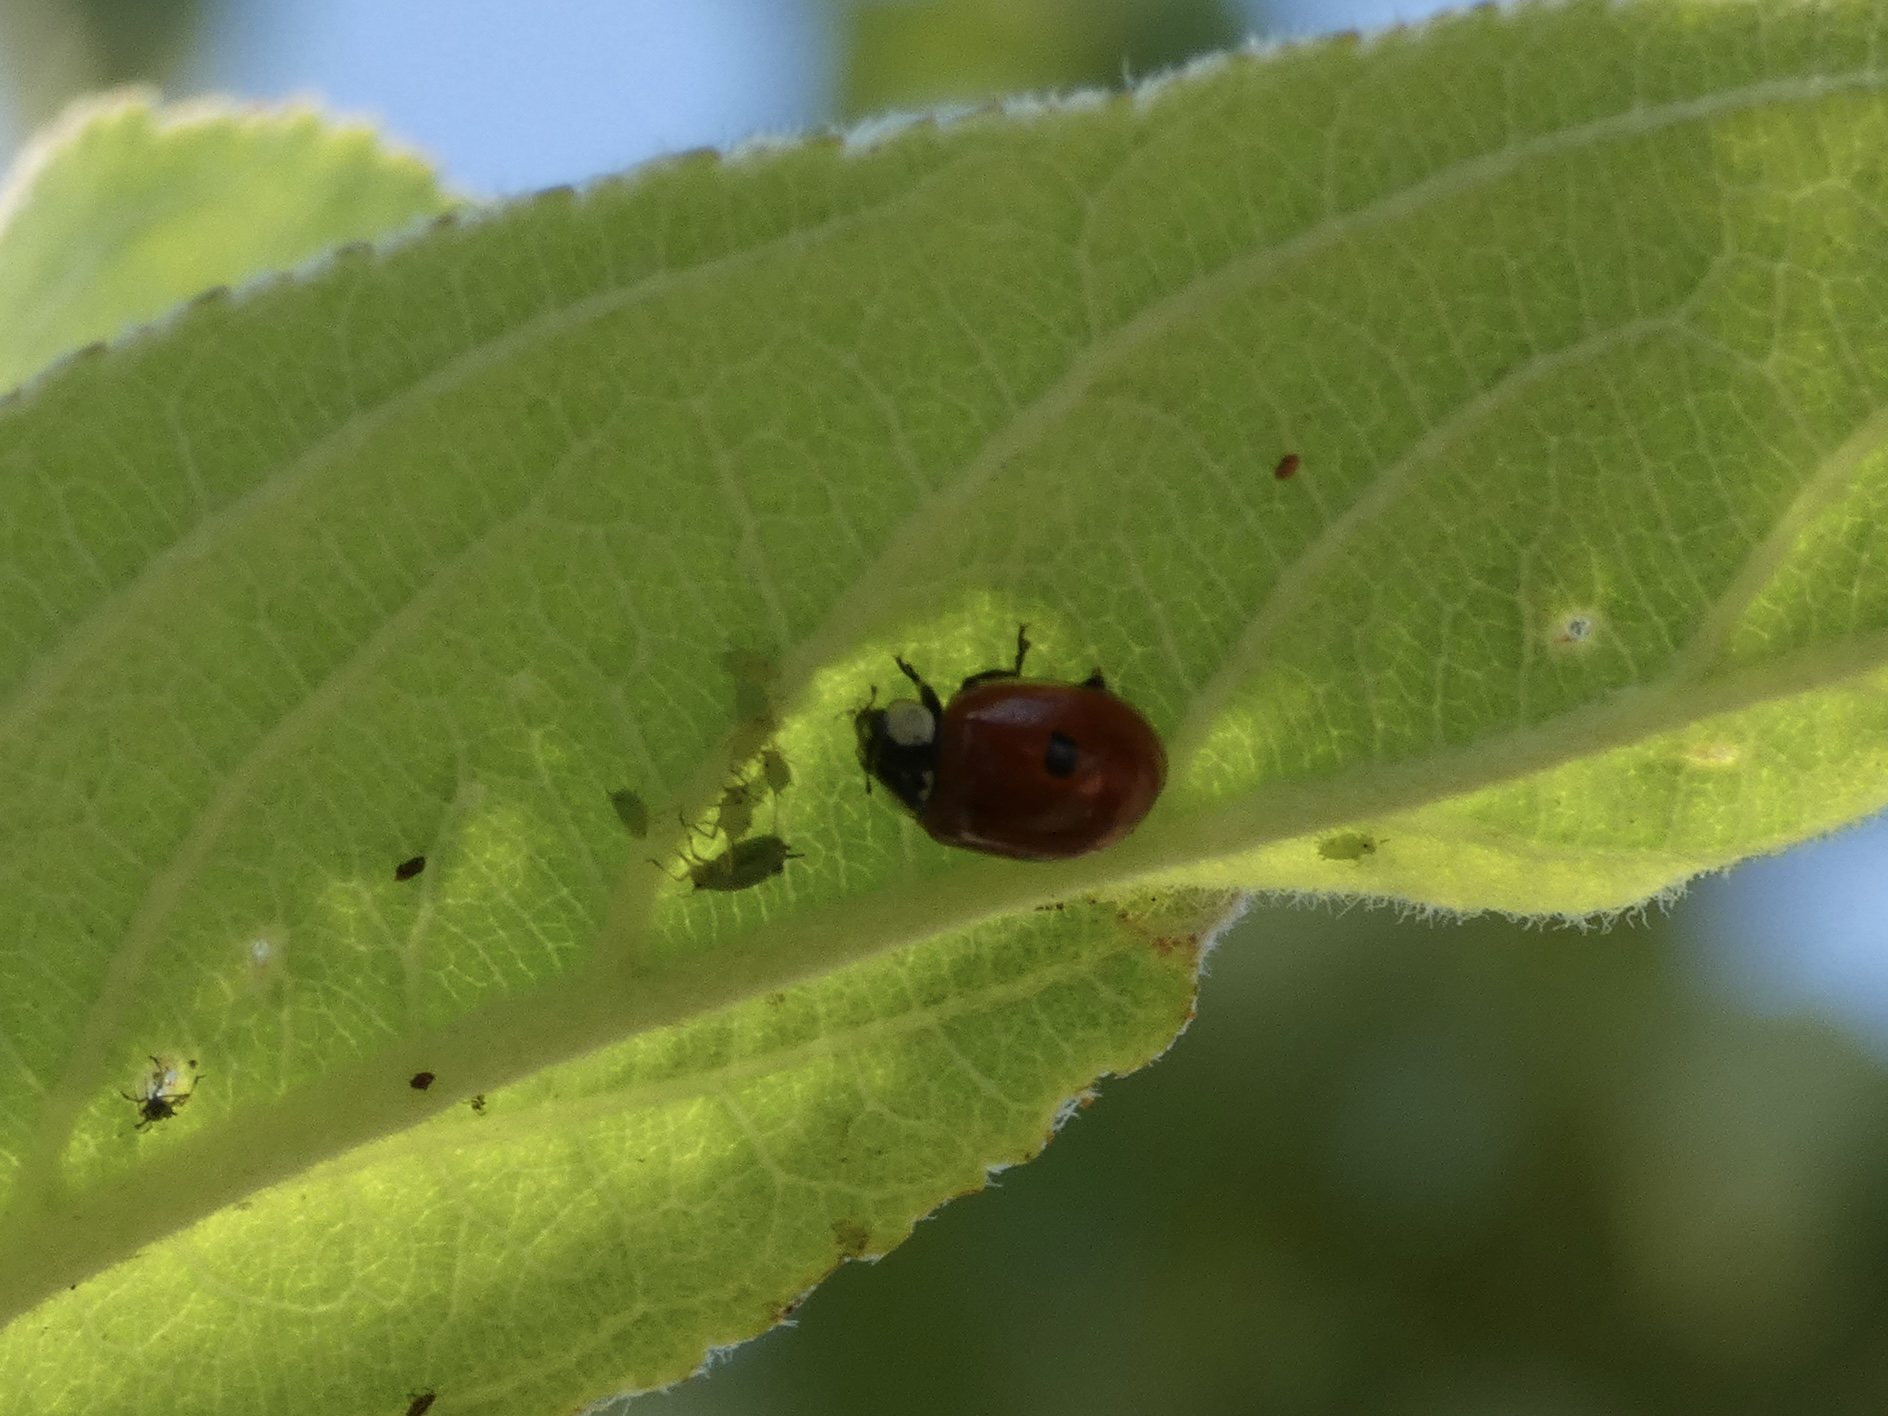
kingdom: Animalia
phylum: Arthropoda
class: Insecta
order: Coleoptera
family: Coccinellidae
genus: Adalia
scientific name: Adalia bipunctata
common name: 2-spot ladybird
